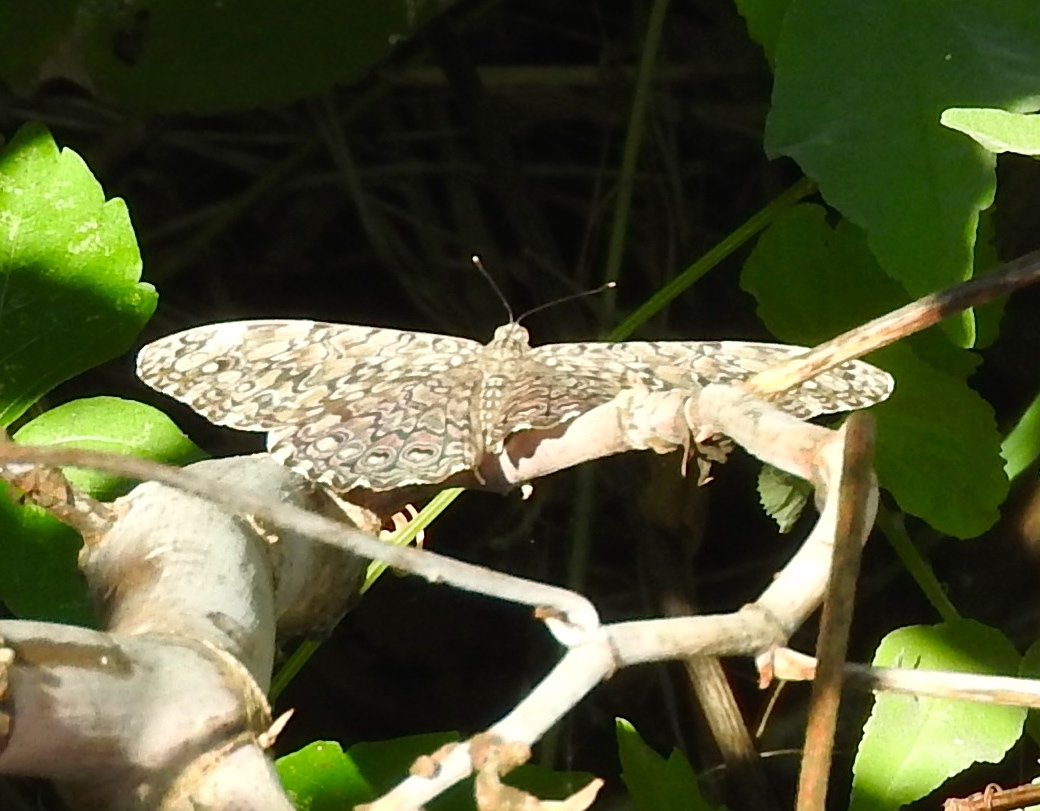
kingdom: Animalia
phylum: Arthropoda
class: Insecta
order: Lepidoptera
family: Nymphalidae
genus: Hamadryas
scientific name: Hamadryas februa
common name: Gray cracker
